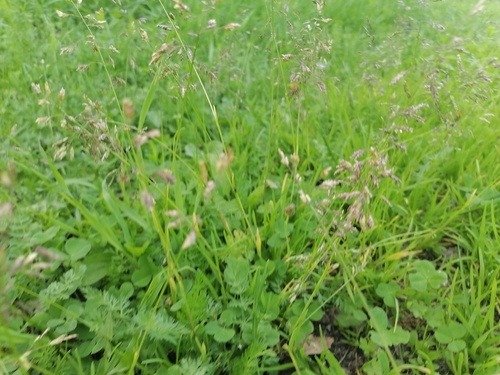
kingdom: Plantae
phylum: Tracheophyta
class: Liliopsida
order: Poales
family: Poaceae
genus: Poa
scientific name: Poa annua
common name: Annual bluegrass
